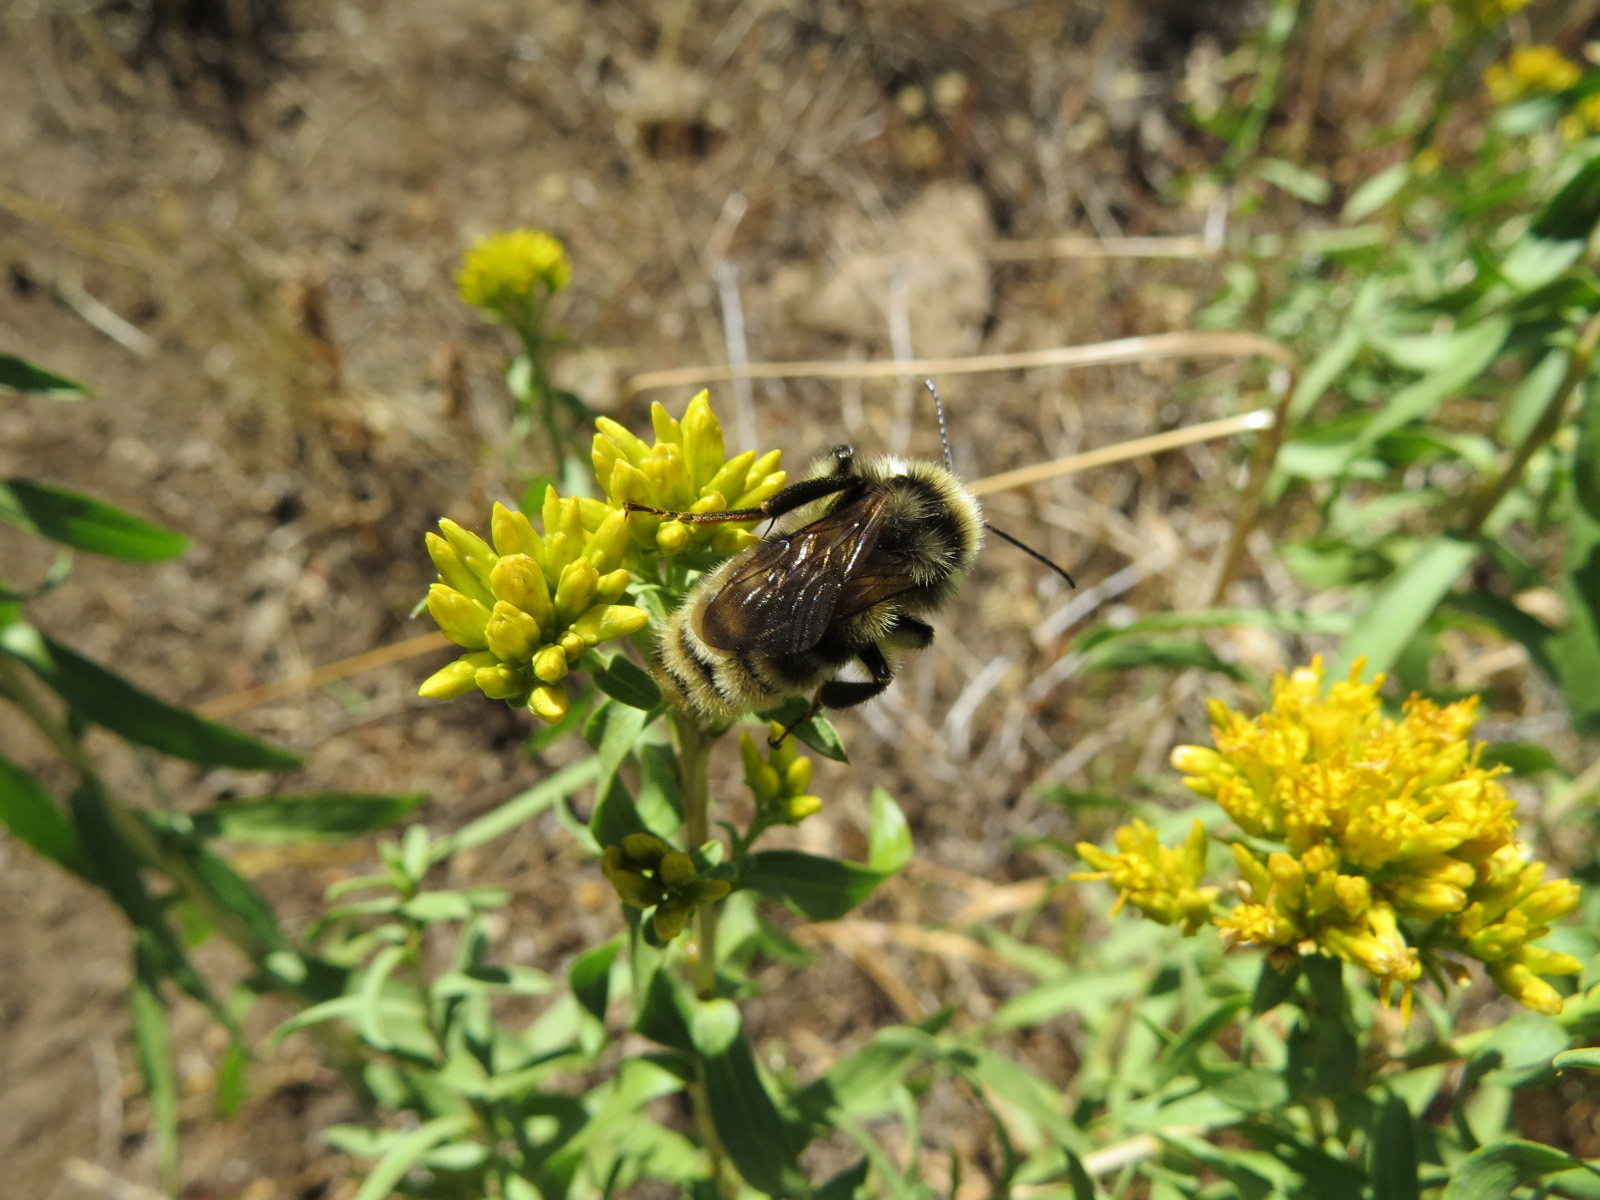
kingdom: Animalia
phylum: Arthropoda
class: Insecta
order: Hymenoptera
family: Apidae
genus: Bombus
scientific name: Bombus californicus
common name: California bumble bee
